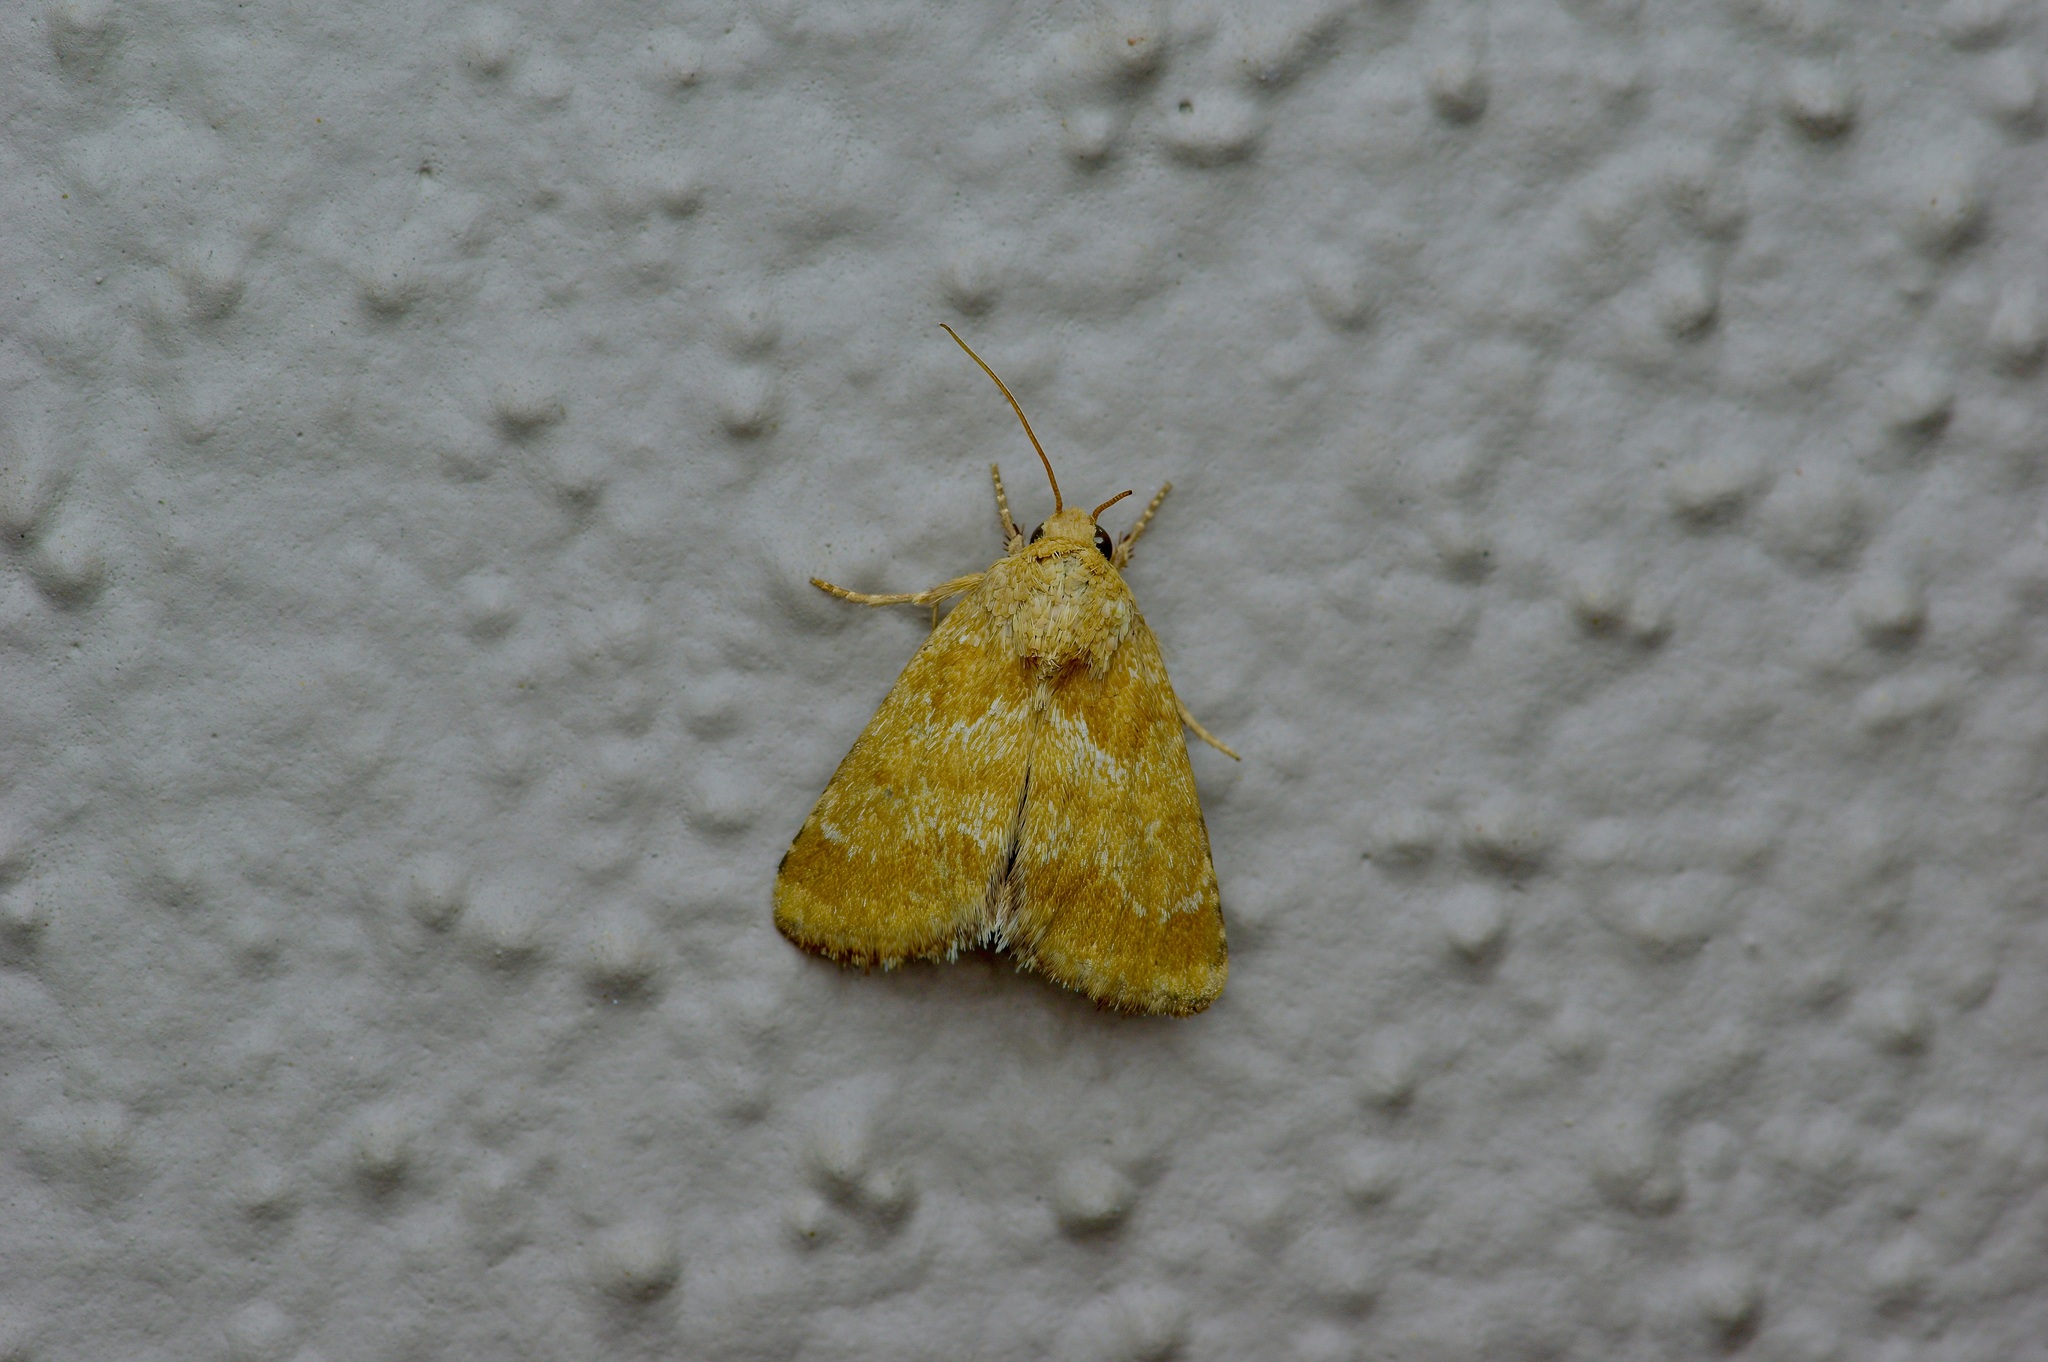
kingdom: Animalia
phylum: Arthropoda
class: Insecta
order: Lepidoptera
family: Noctuidae
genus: Schinia
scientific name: Schinia siren
